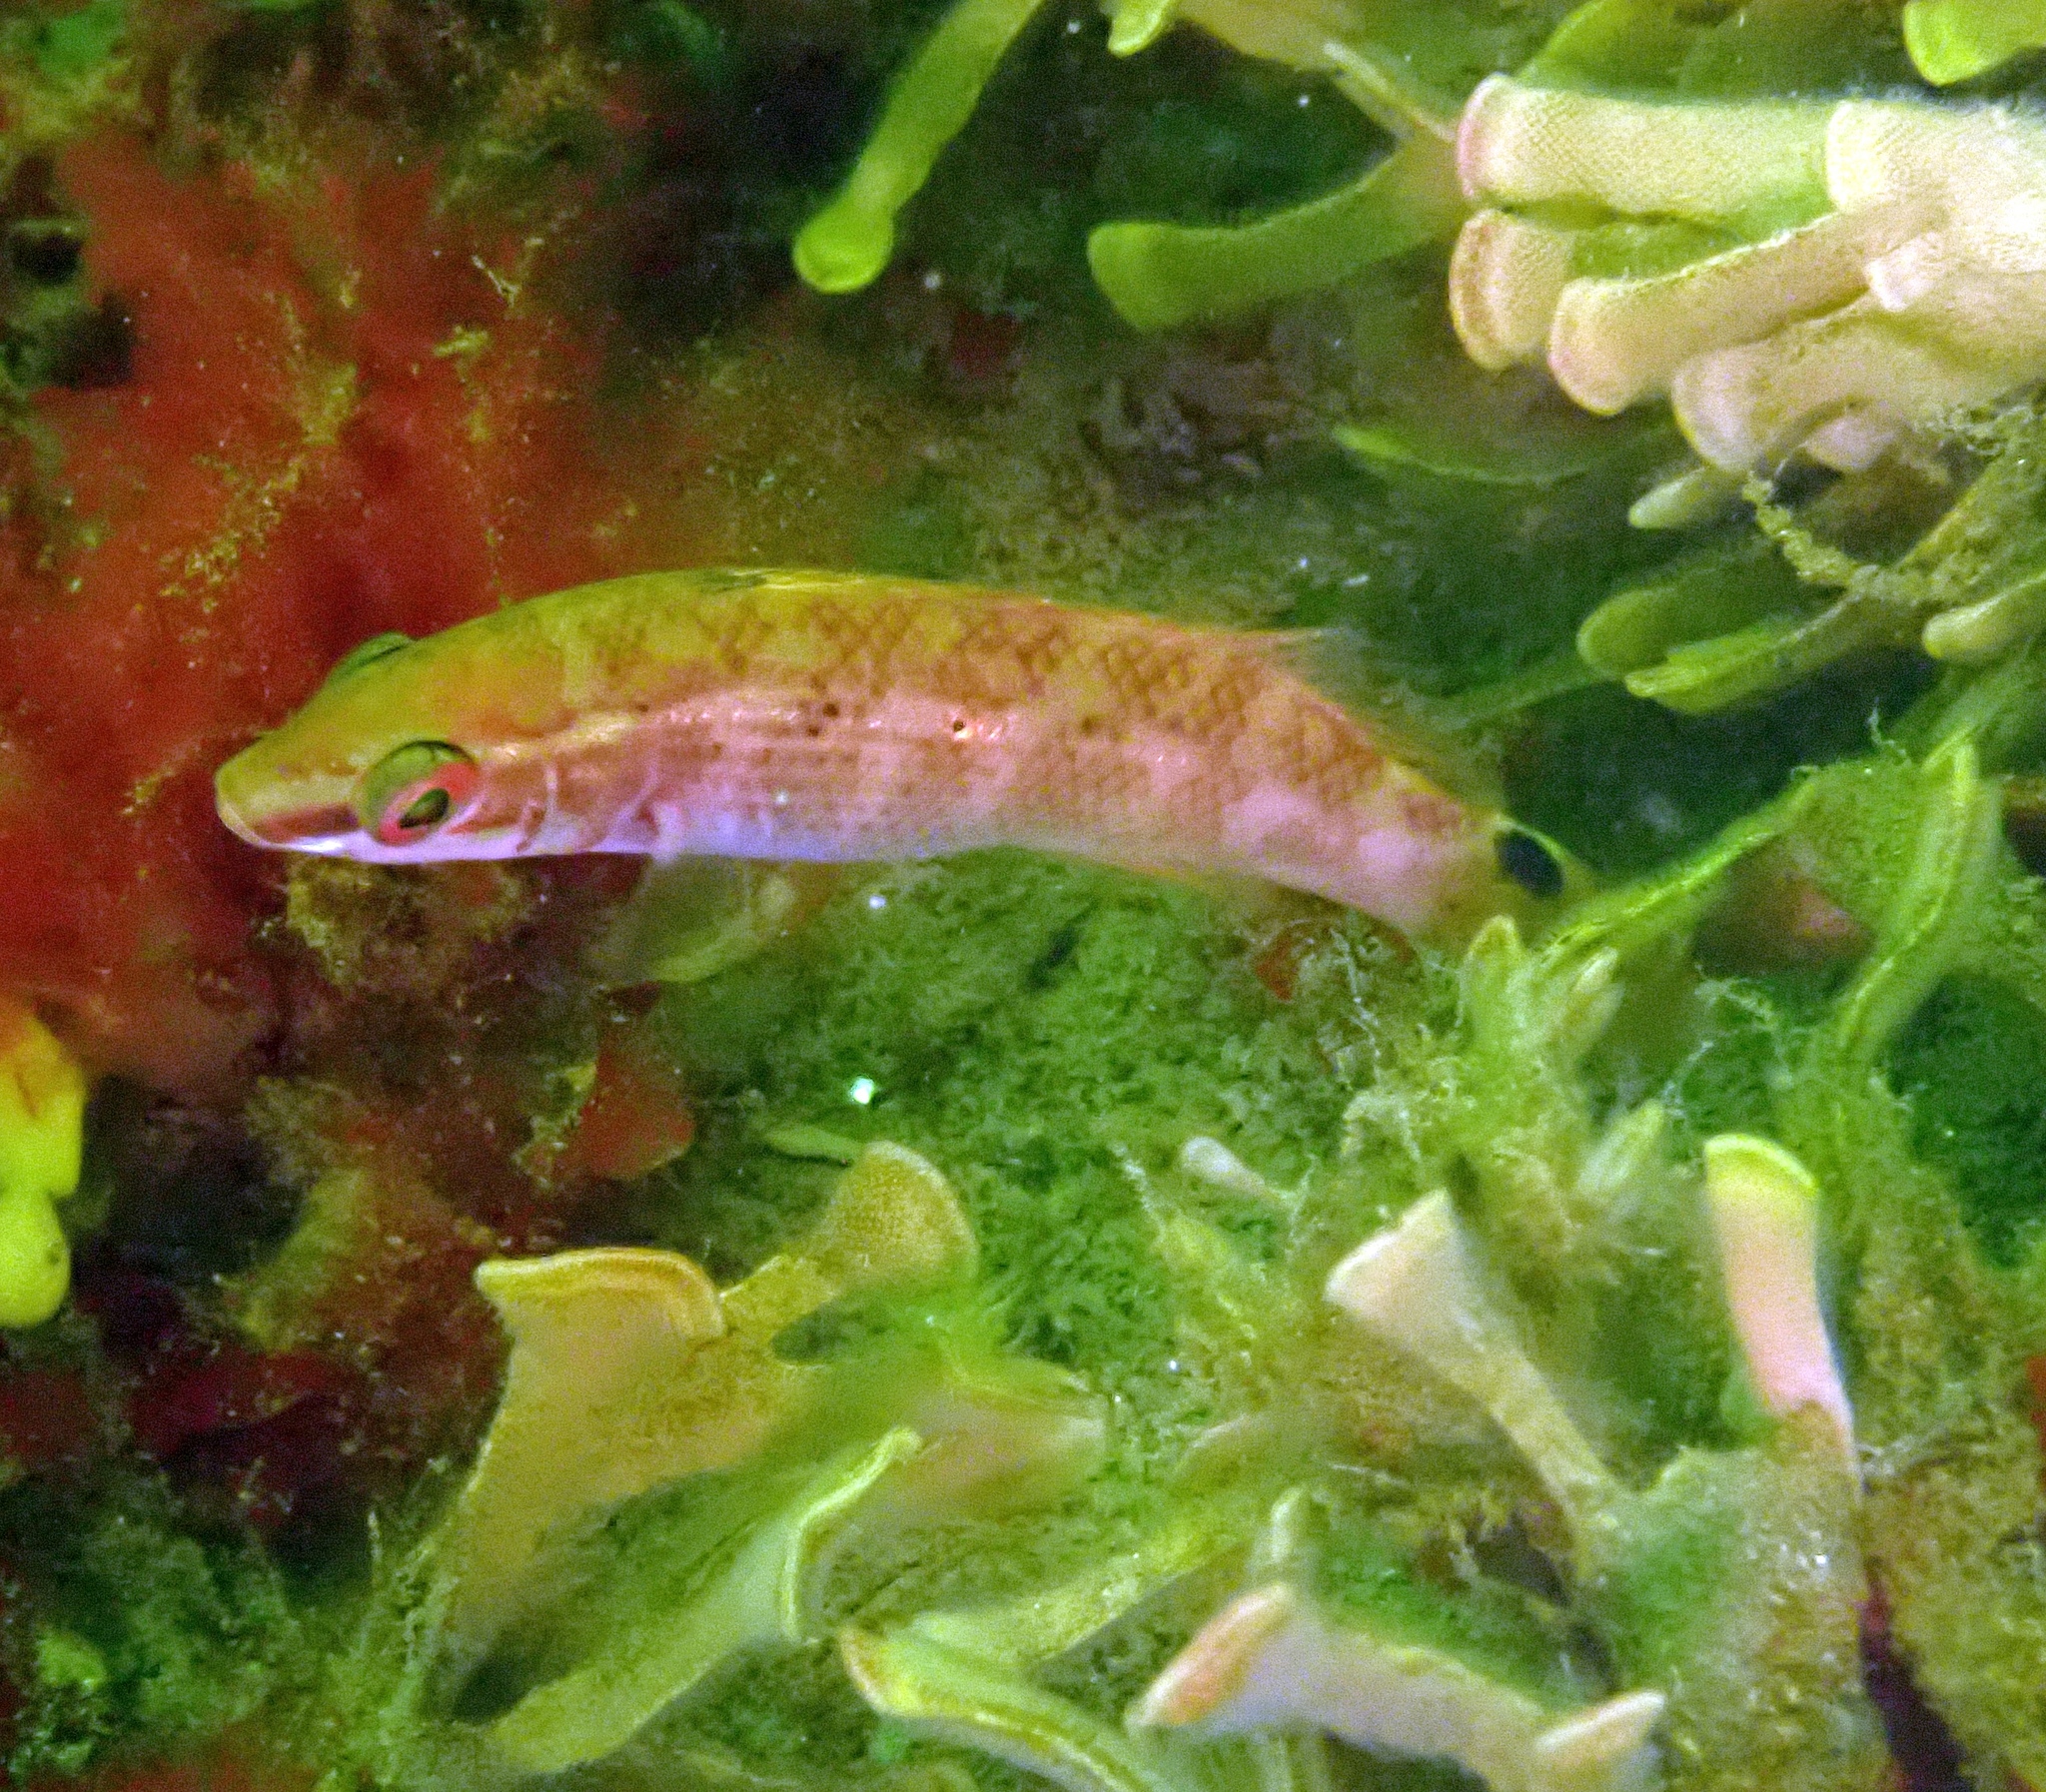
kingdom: Animalia
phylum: Chordata
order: Perciformes
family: Labridae
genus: Ctenolabrus
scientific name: Ctenolabrus rupestris
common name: Goldsinny
